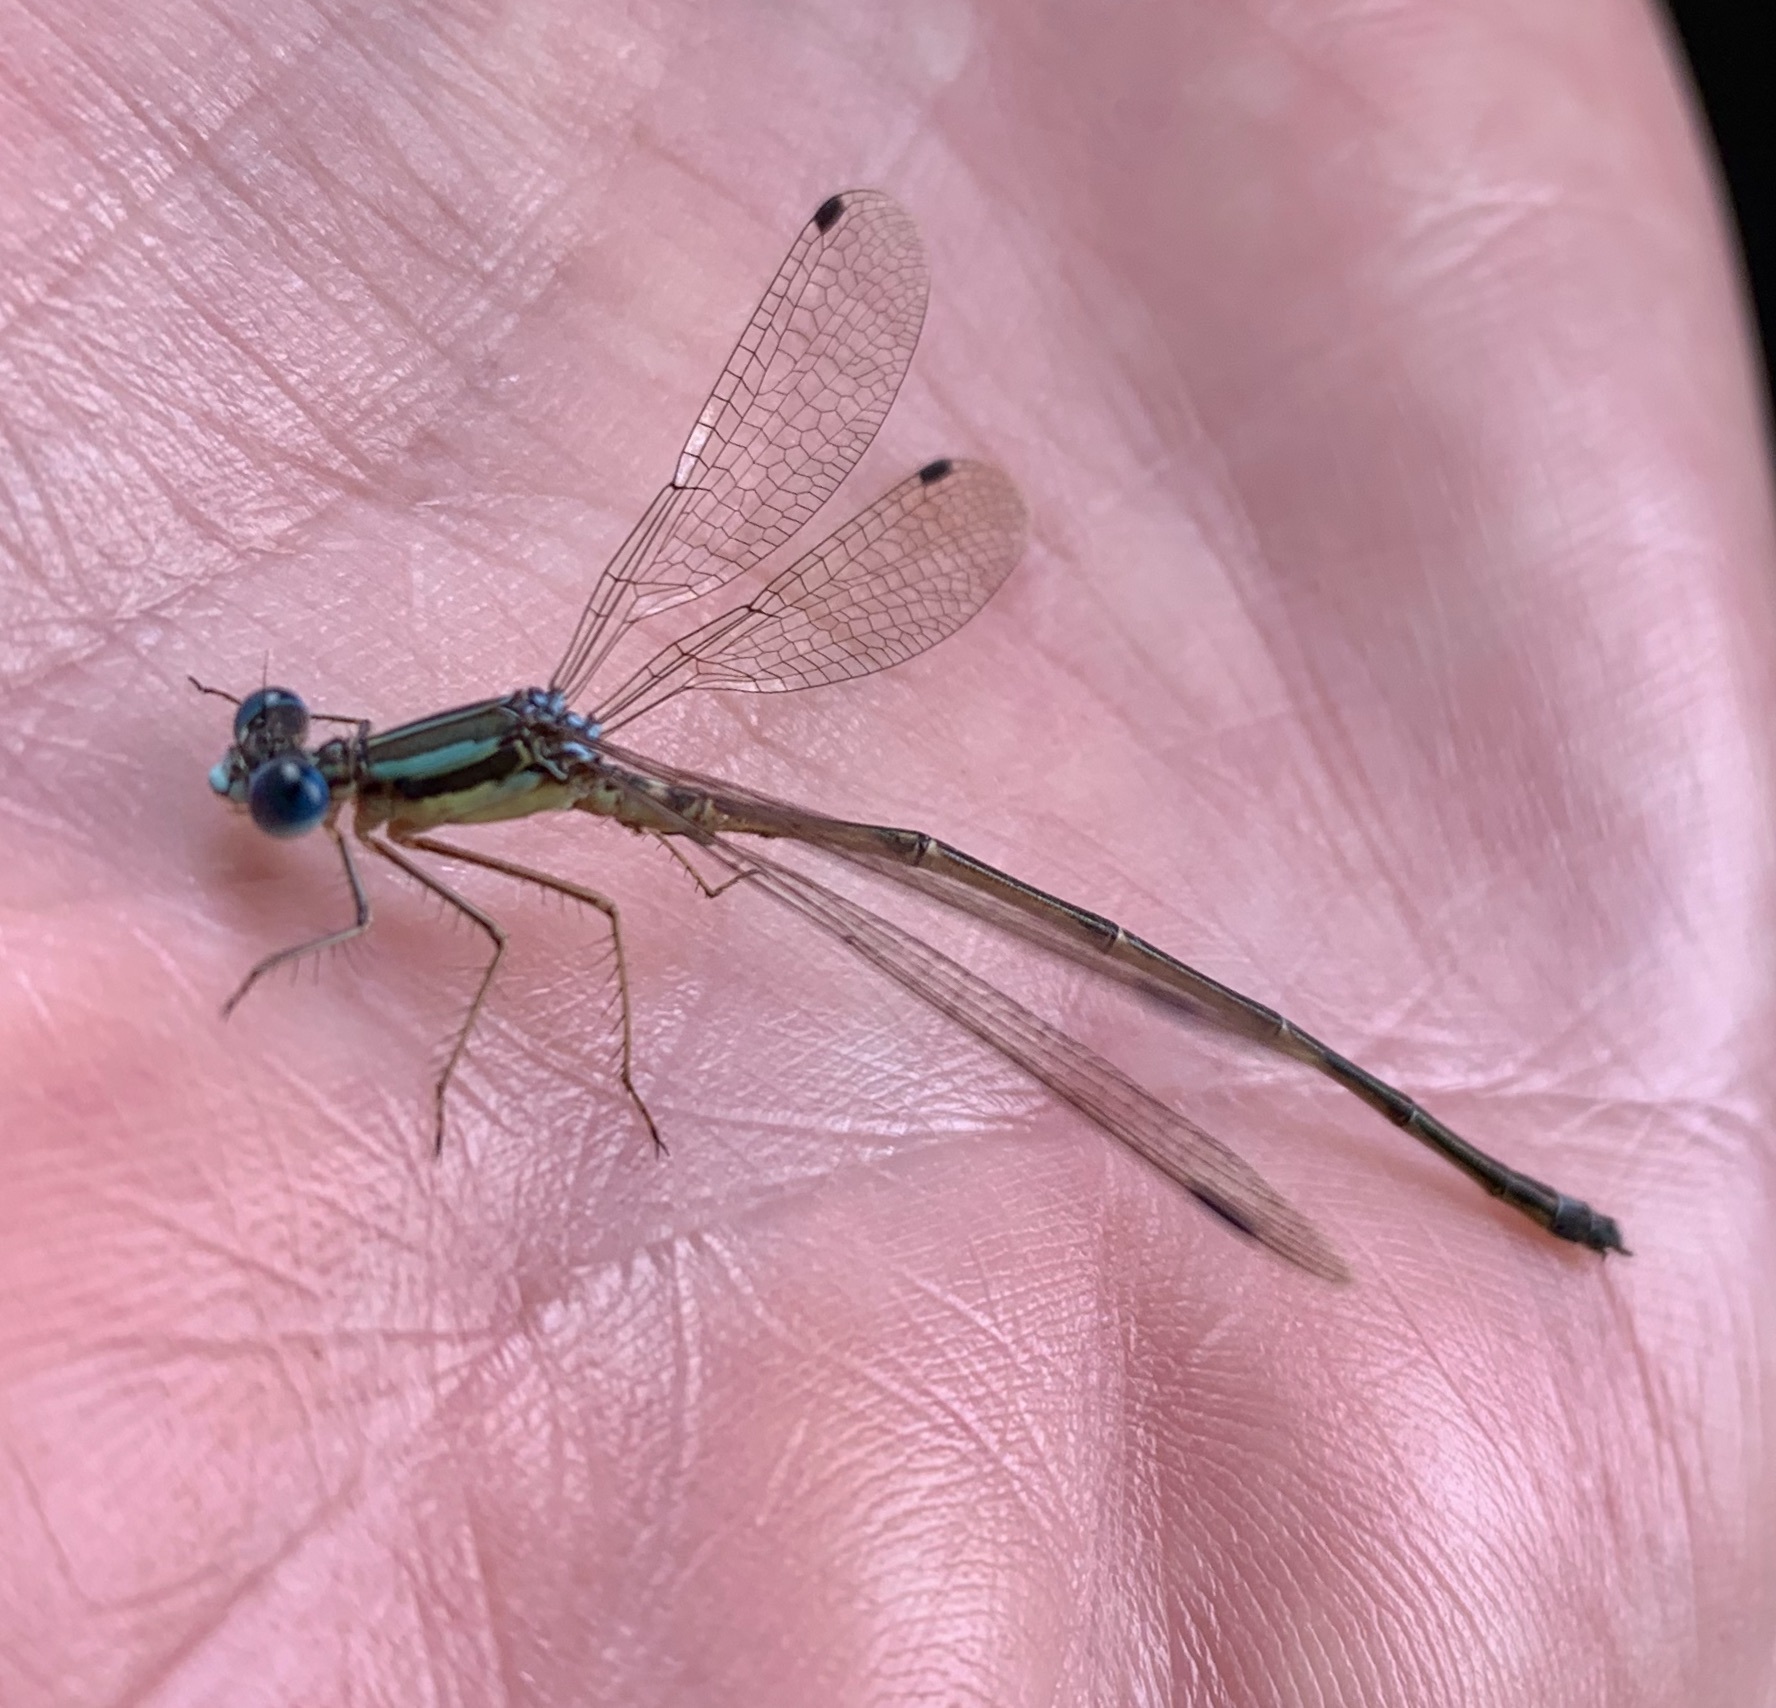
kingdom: Animalia
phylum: Arthropoda
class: Insecta
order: Odonata
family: Lestidae
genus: Lestes
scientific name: Lestes rectangularis
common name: Slender spreadwing
